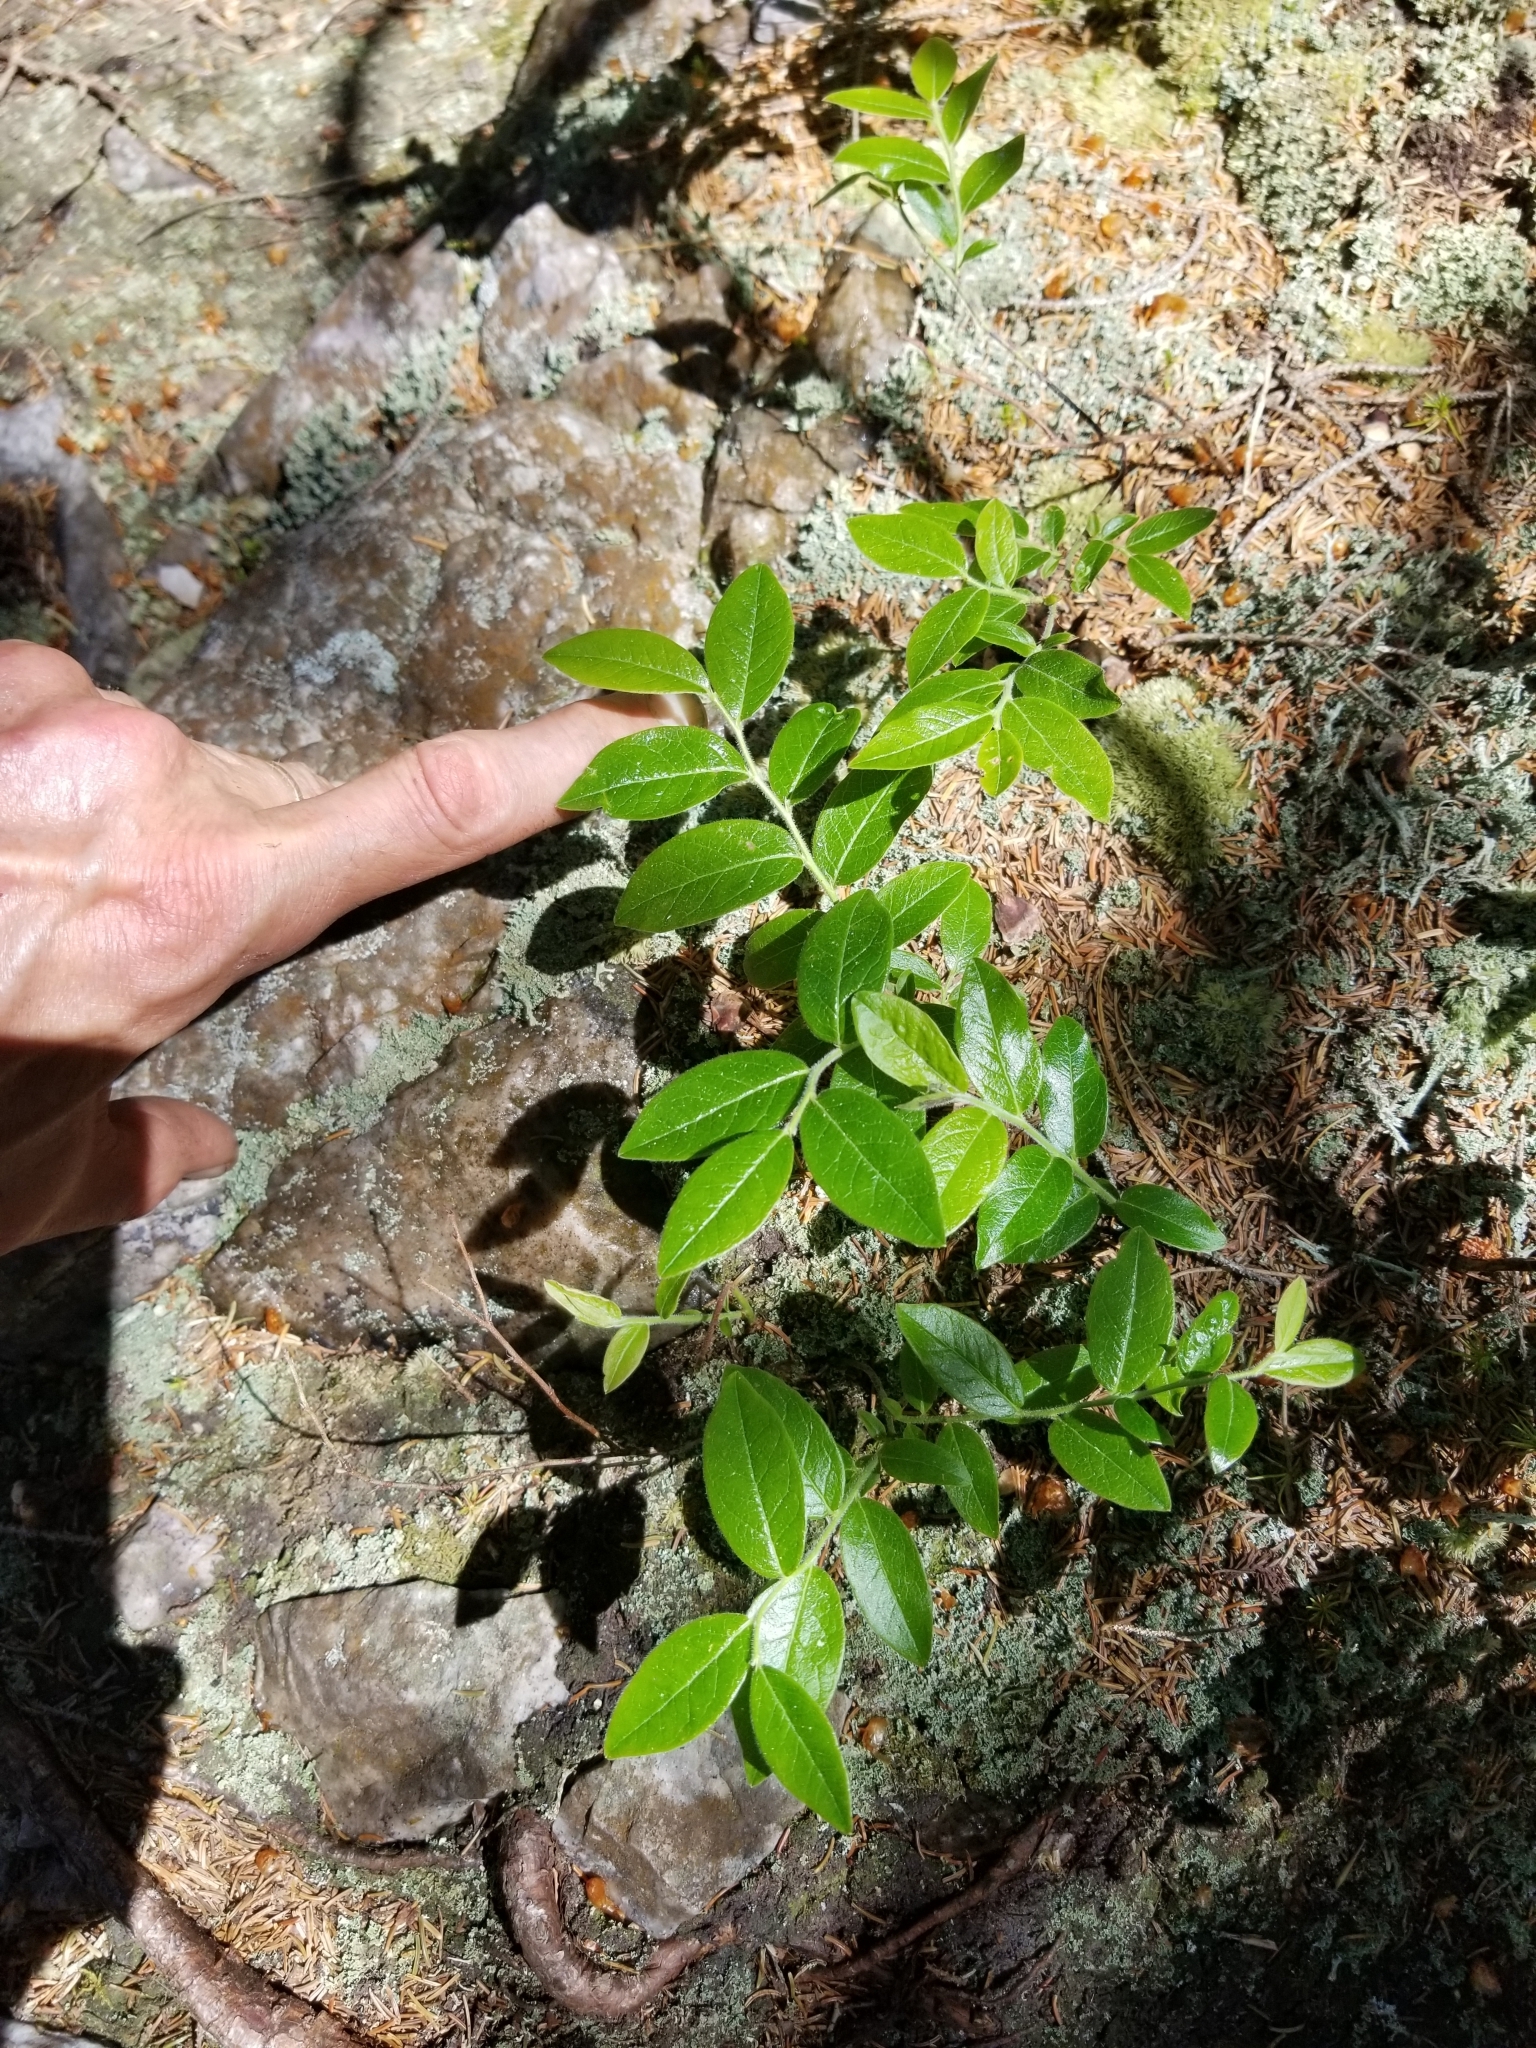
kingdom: Plantae
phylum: Tracheophyta
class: Magnoliopsida
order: Ericales
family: Ericaceae
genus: Vaccinium
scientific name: Vaccinium myrtilloides
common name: Canada blueberry
